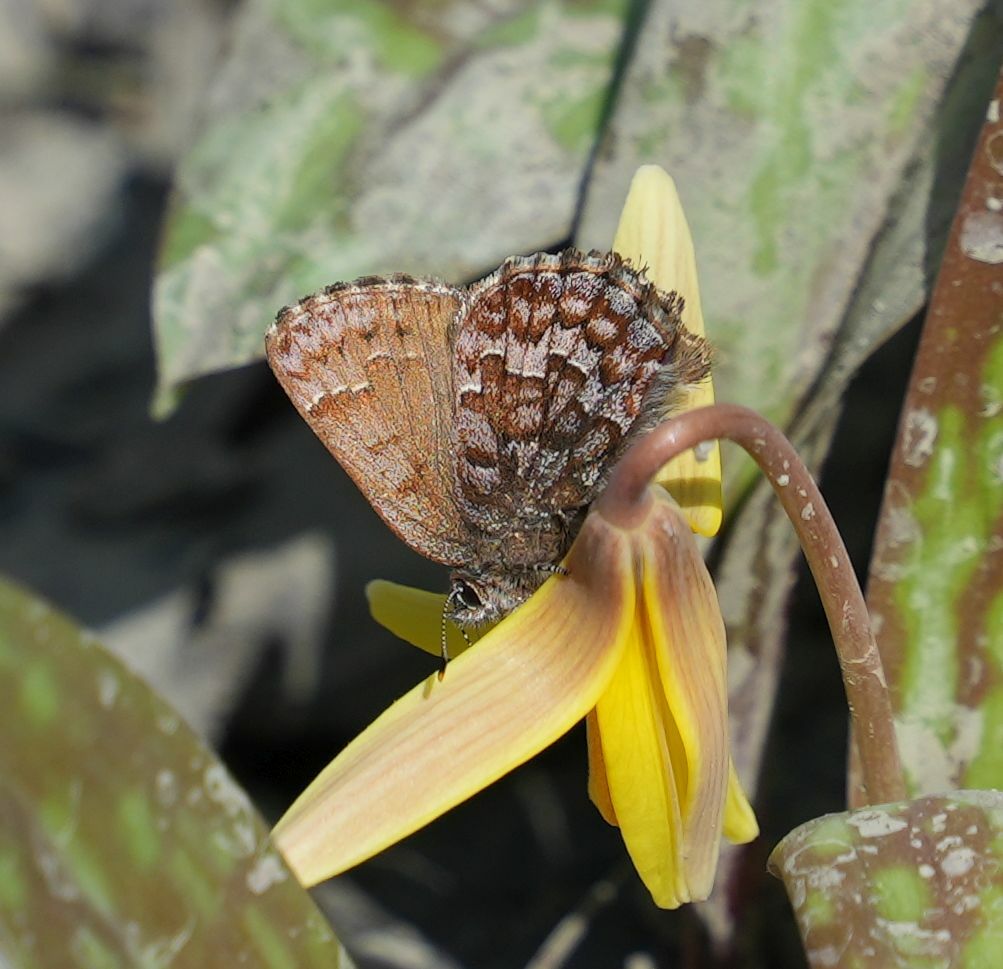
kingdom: Animalia
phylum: Arthropoda
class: Insecta
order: Lepidoptera
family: Lycaenidae
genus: Incisalia
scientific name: Incisalia niphon
